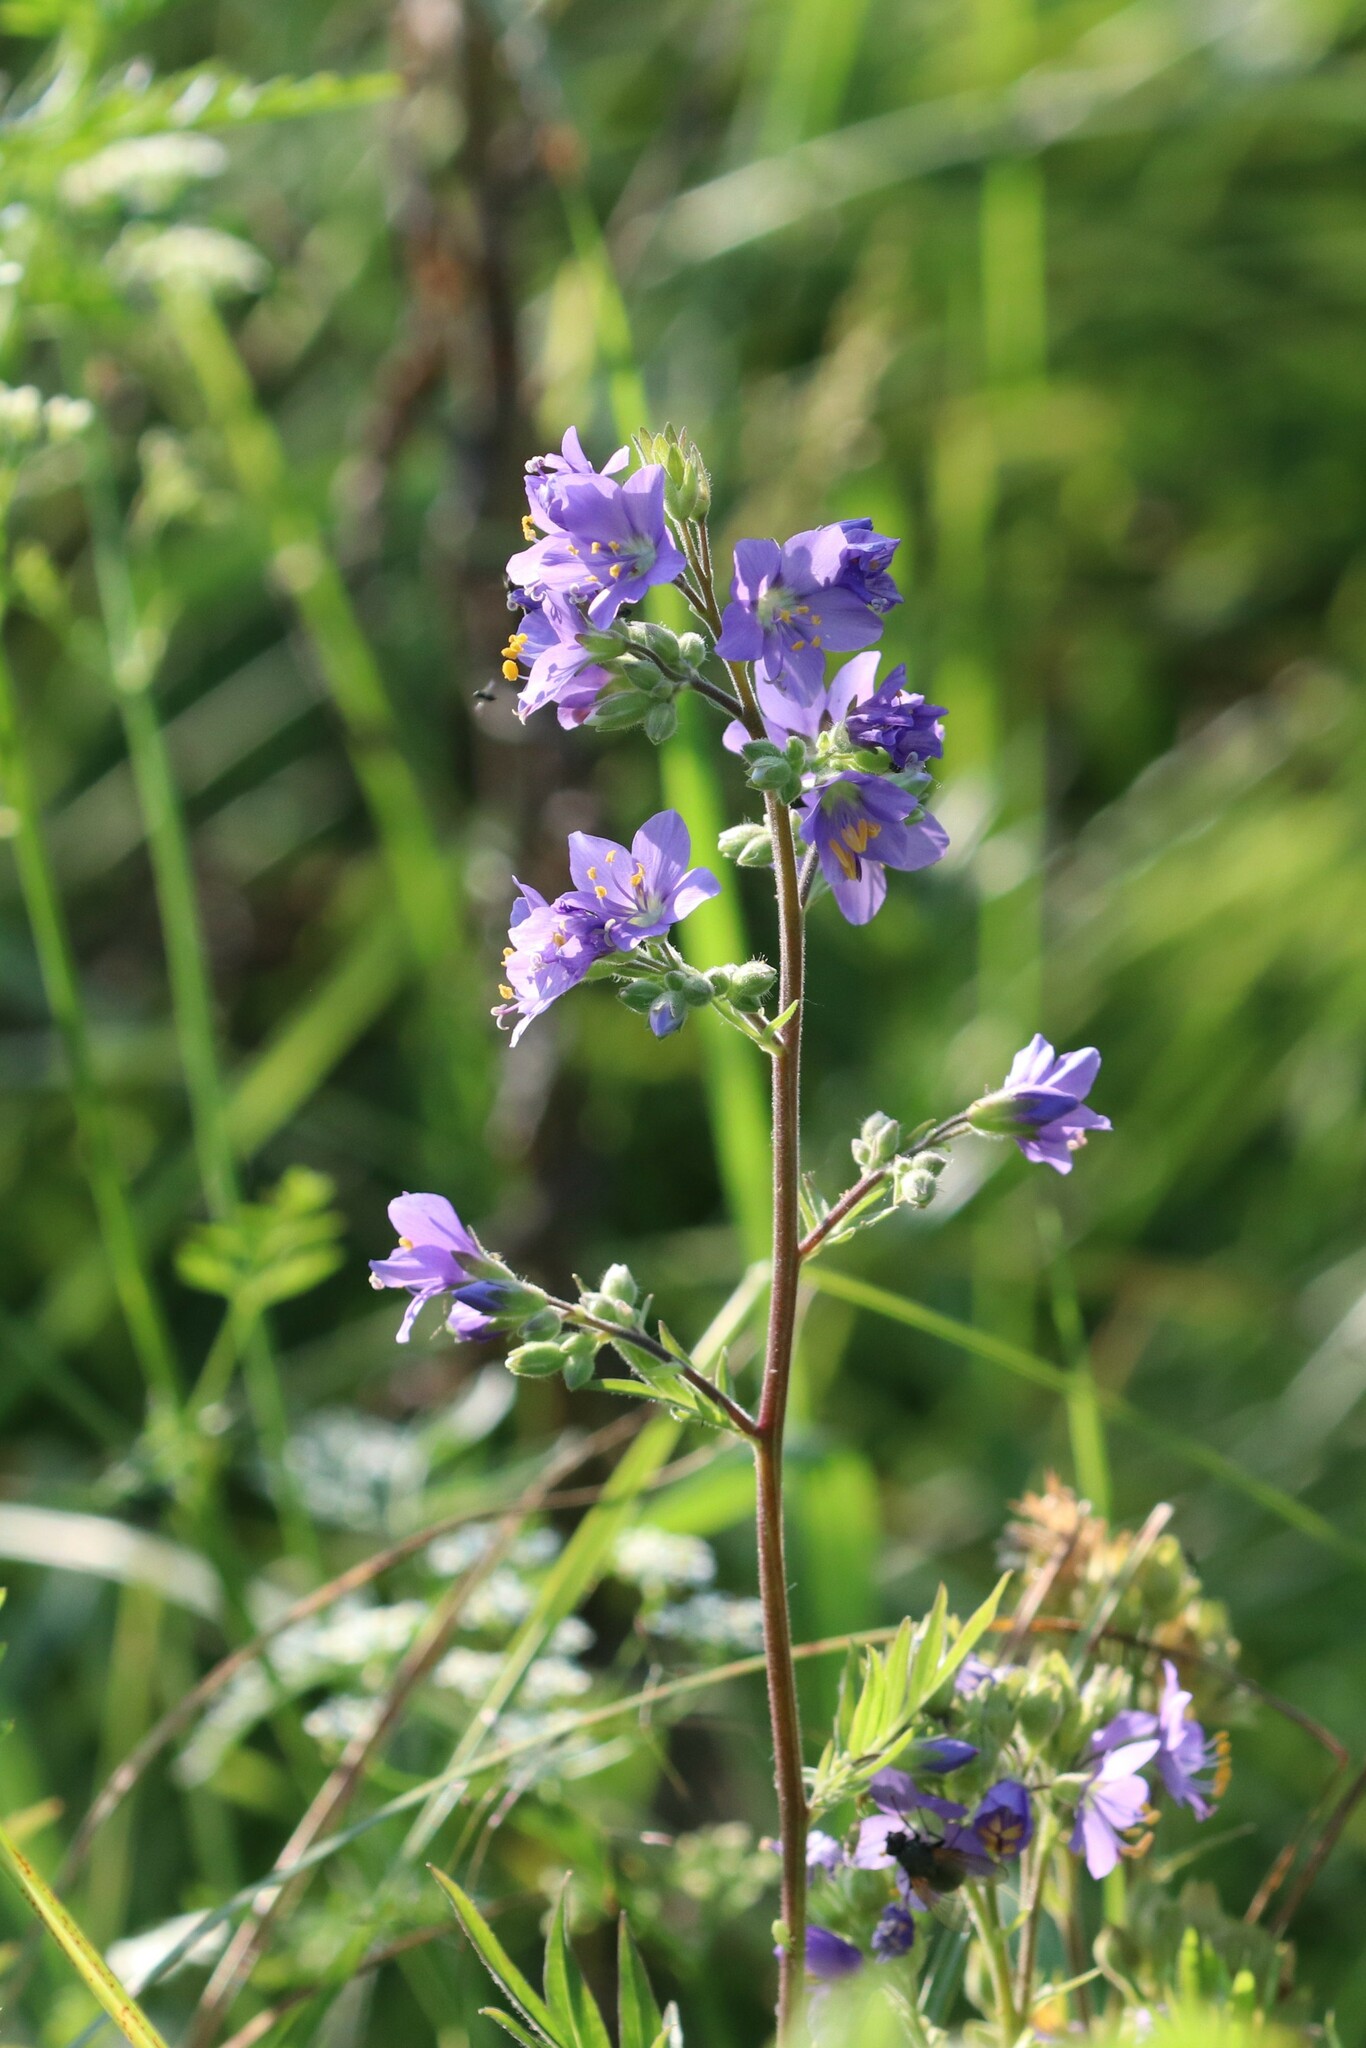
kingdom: Plantae
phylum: Tracheophyta
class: Magnoliopsida
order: Ericales
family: Polemoniaceae
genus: Polemonium
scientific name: Polemonium caeruleum
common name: Jacob's-ladder
